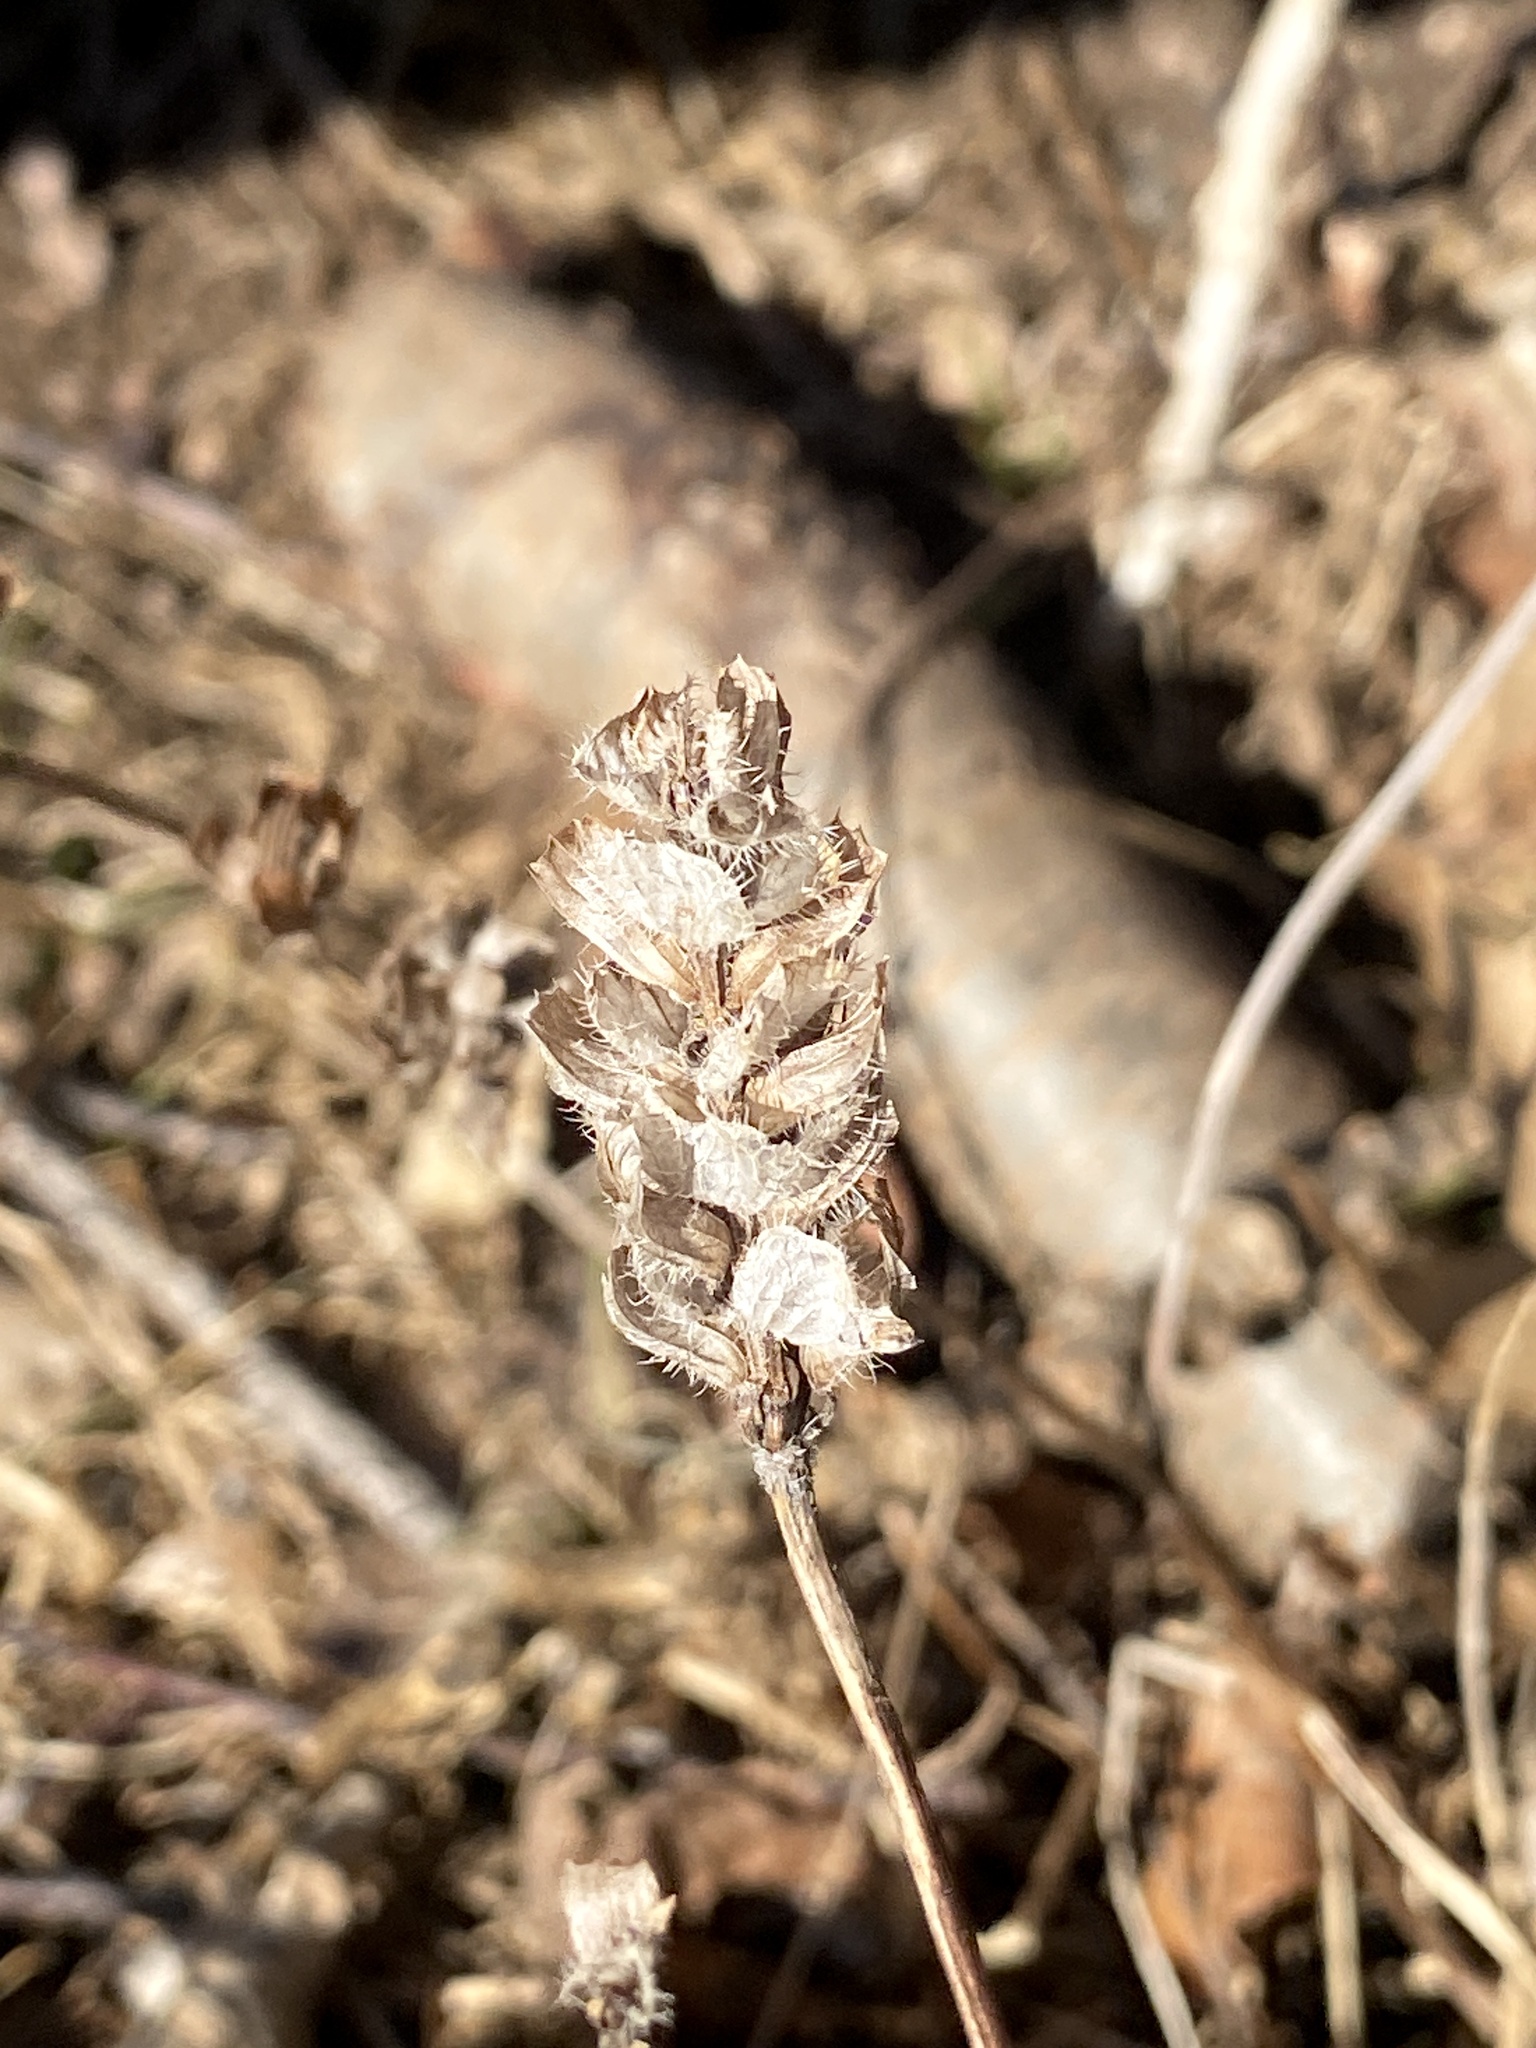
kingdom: Plantae
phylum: Tracheophyta
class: Magnoliopsida
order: Lamiales
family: Lamiaceae
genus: Prunella
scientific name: Prunella vulgaris
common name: Heal-all
